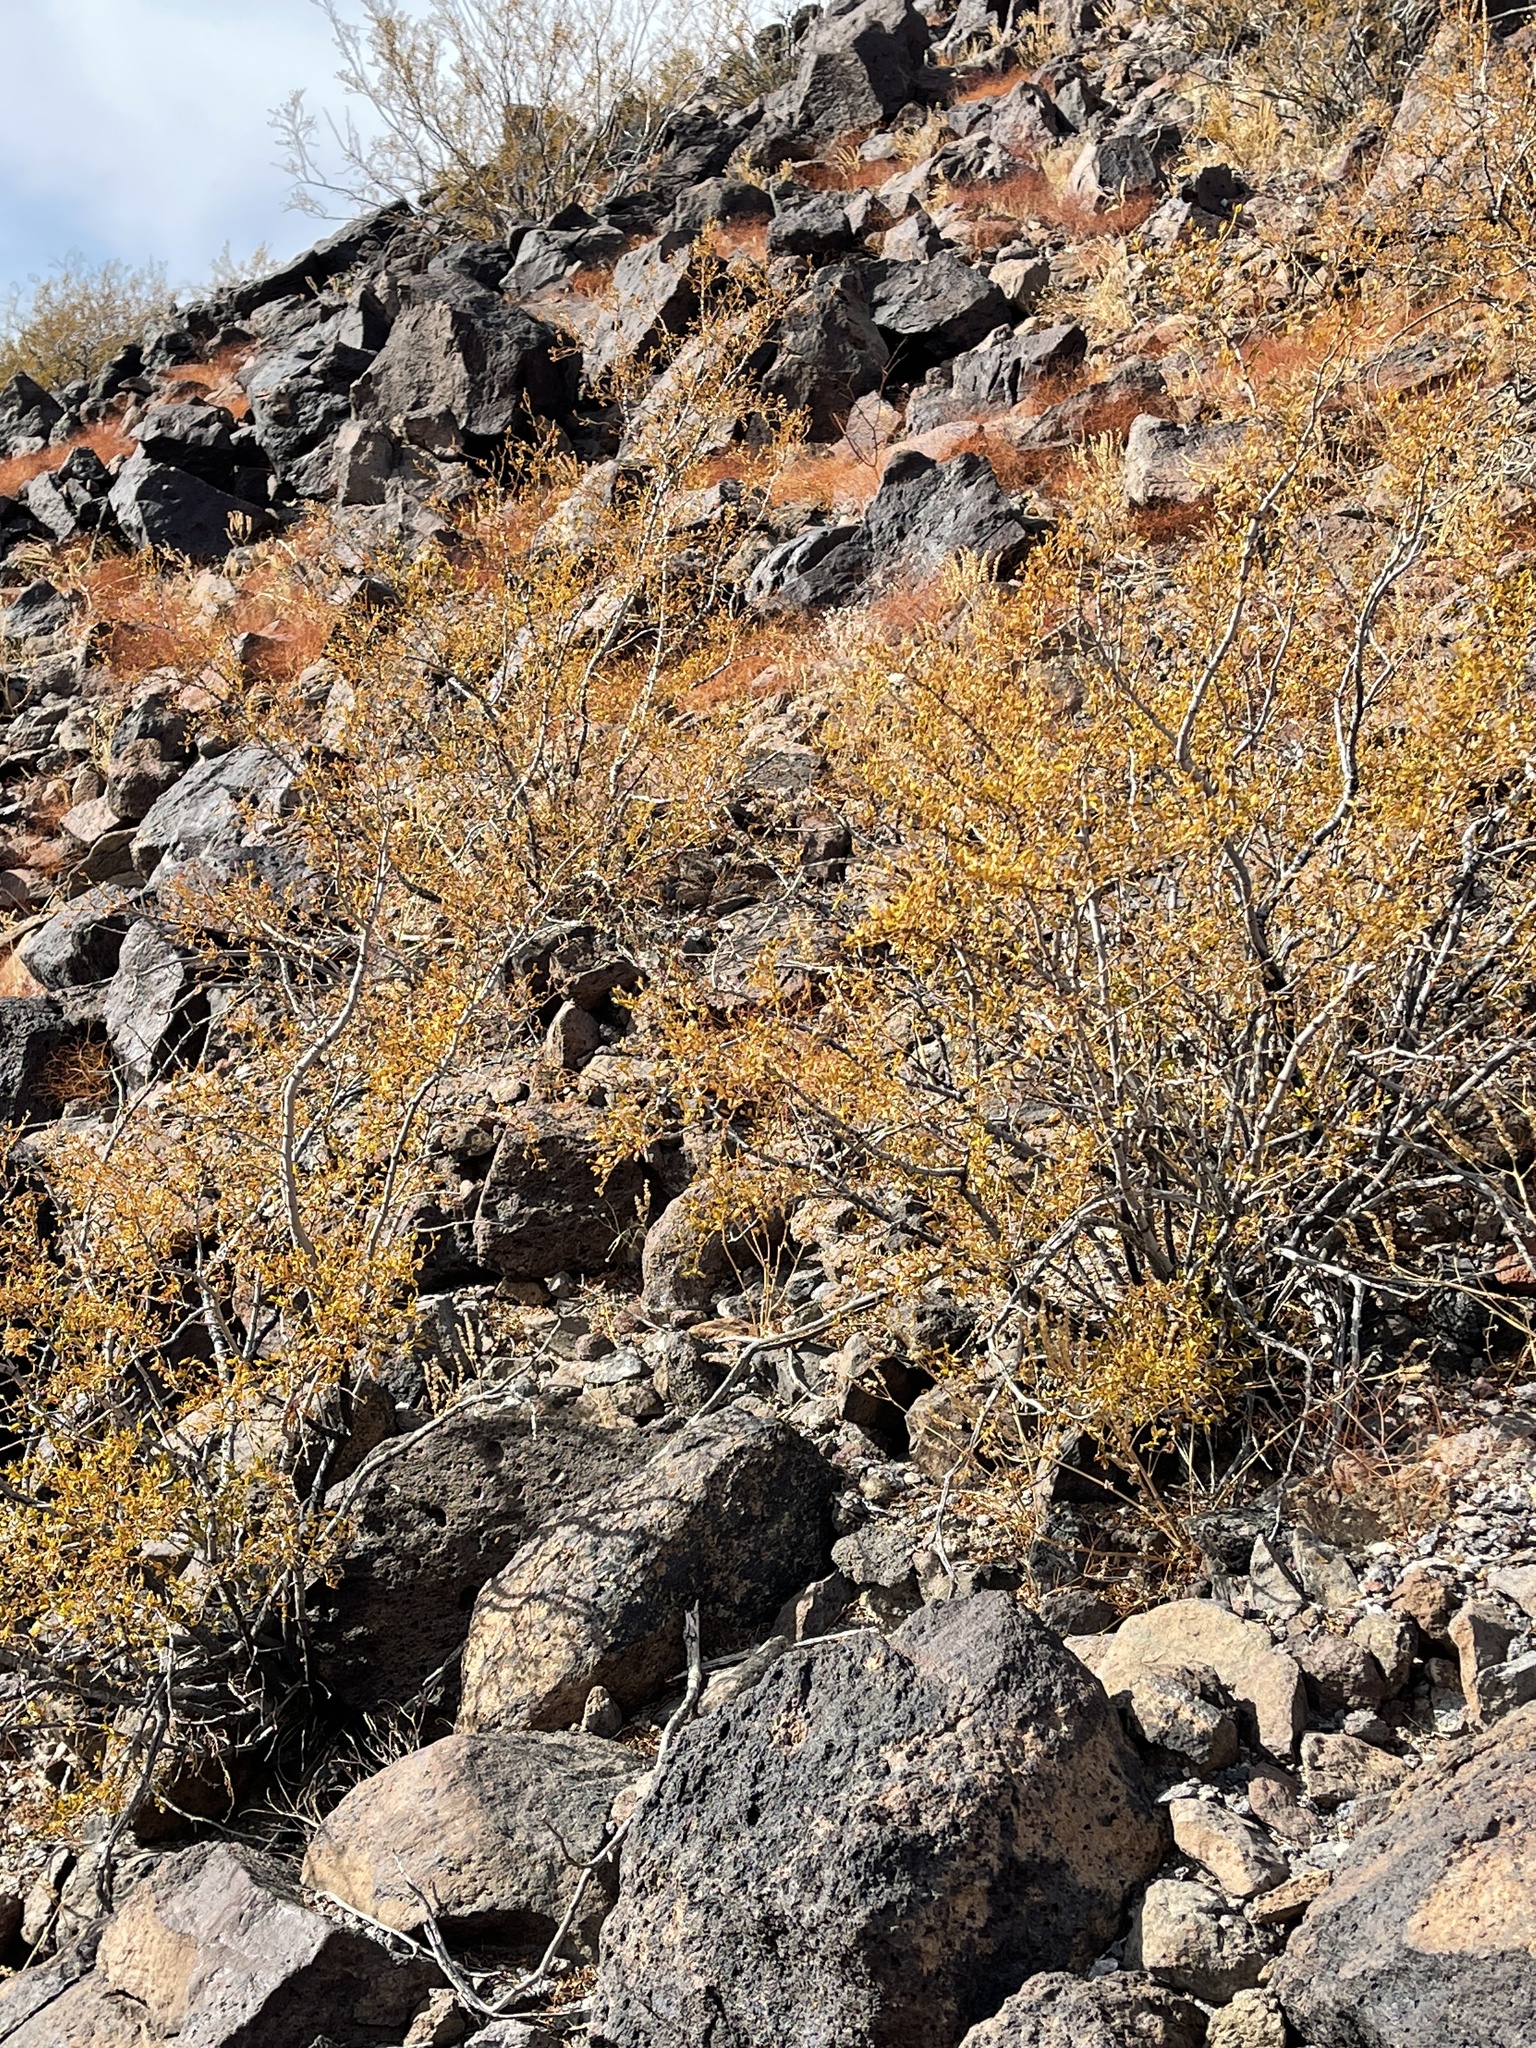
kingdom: Plantae
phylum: Tracheophyta
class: Magnoliopsida
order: Zygophyllales
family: Zygophyllaceae
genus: Larrea
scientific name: Larrea tridentata
